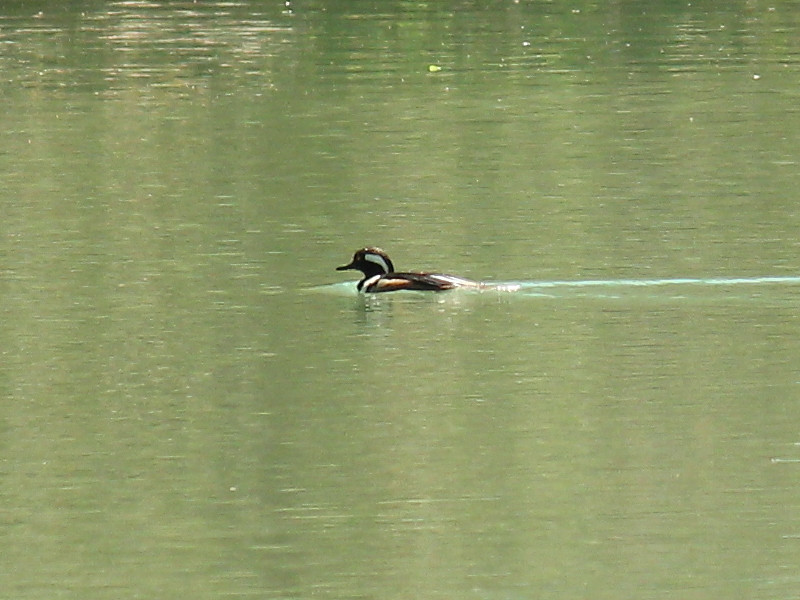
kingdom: Animalia
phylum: Chordata
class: Aves
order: Anseriformes
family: Anatidae
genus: Lophodytes
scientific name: Lophodytes cucullatus
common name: Hooded merganser
